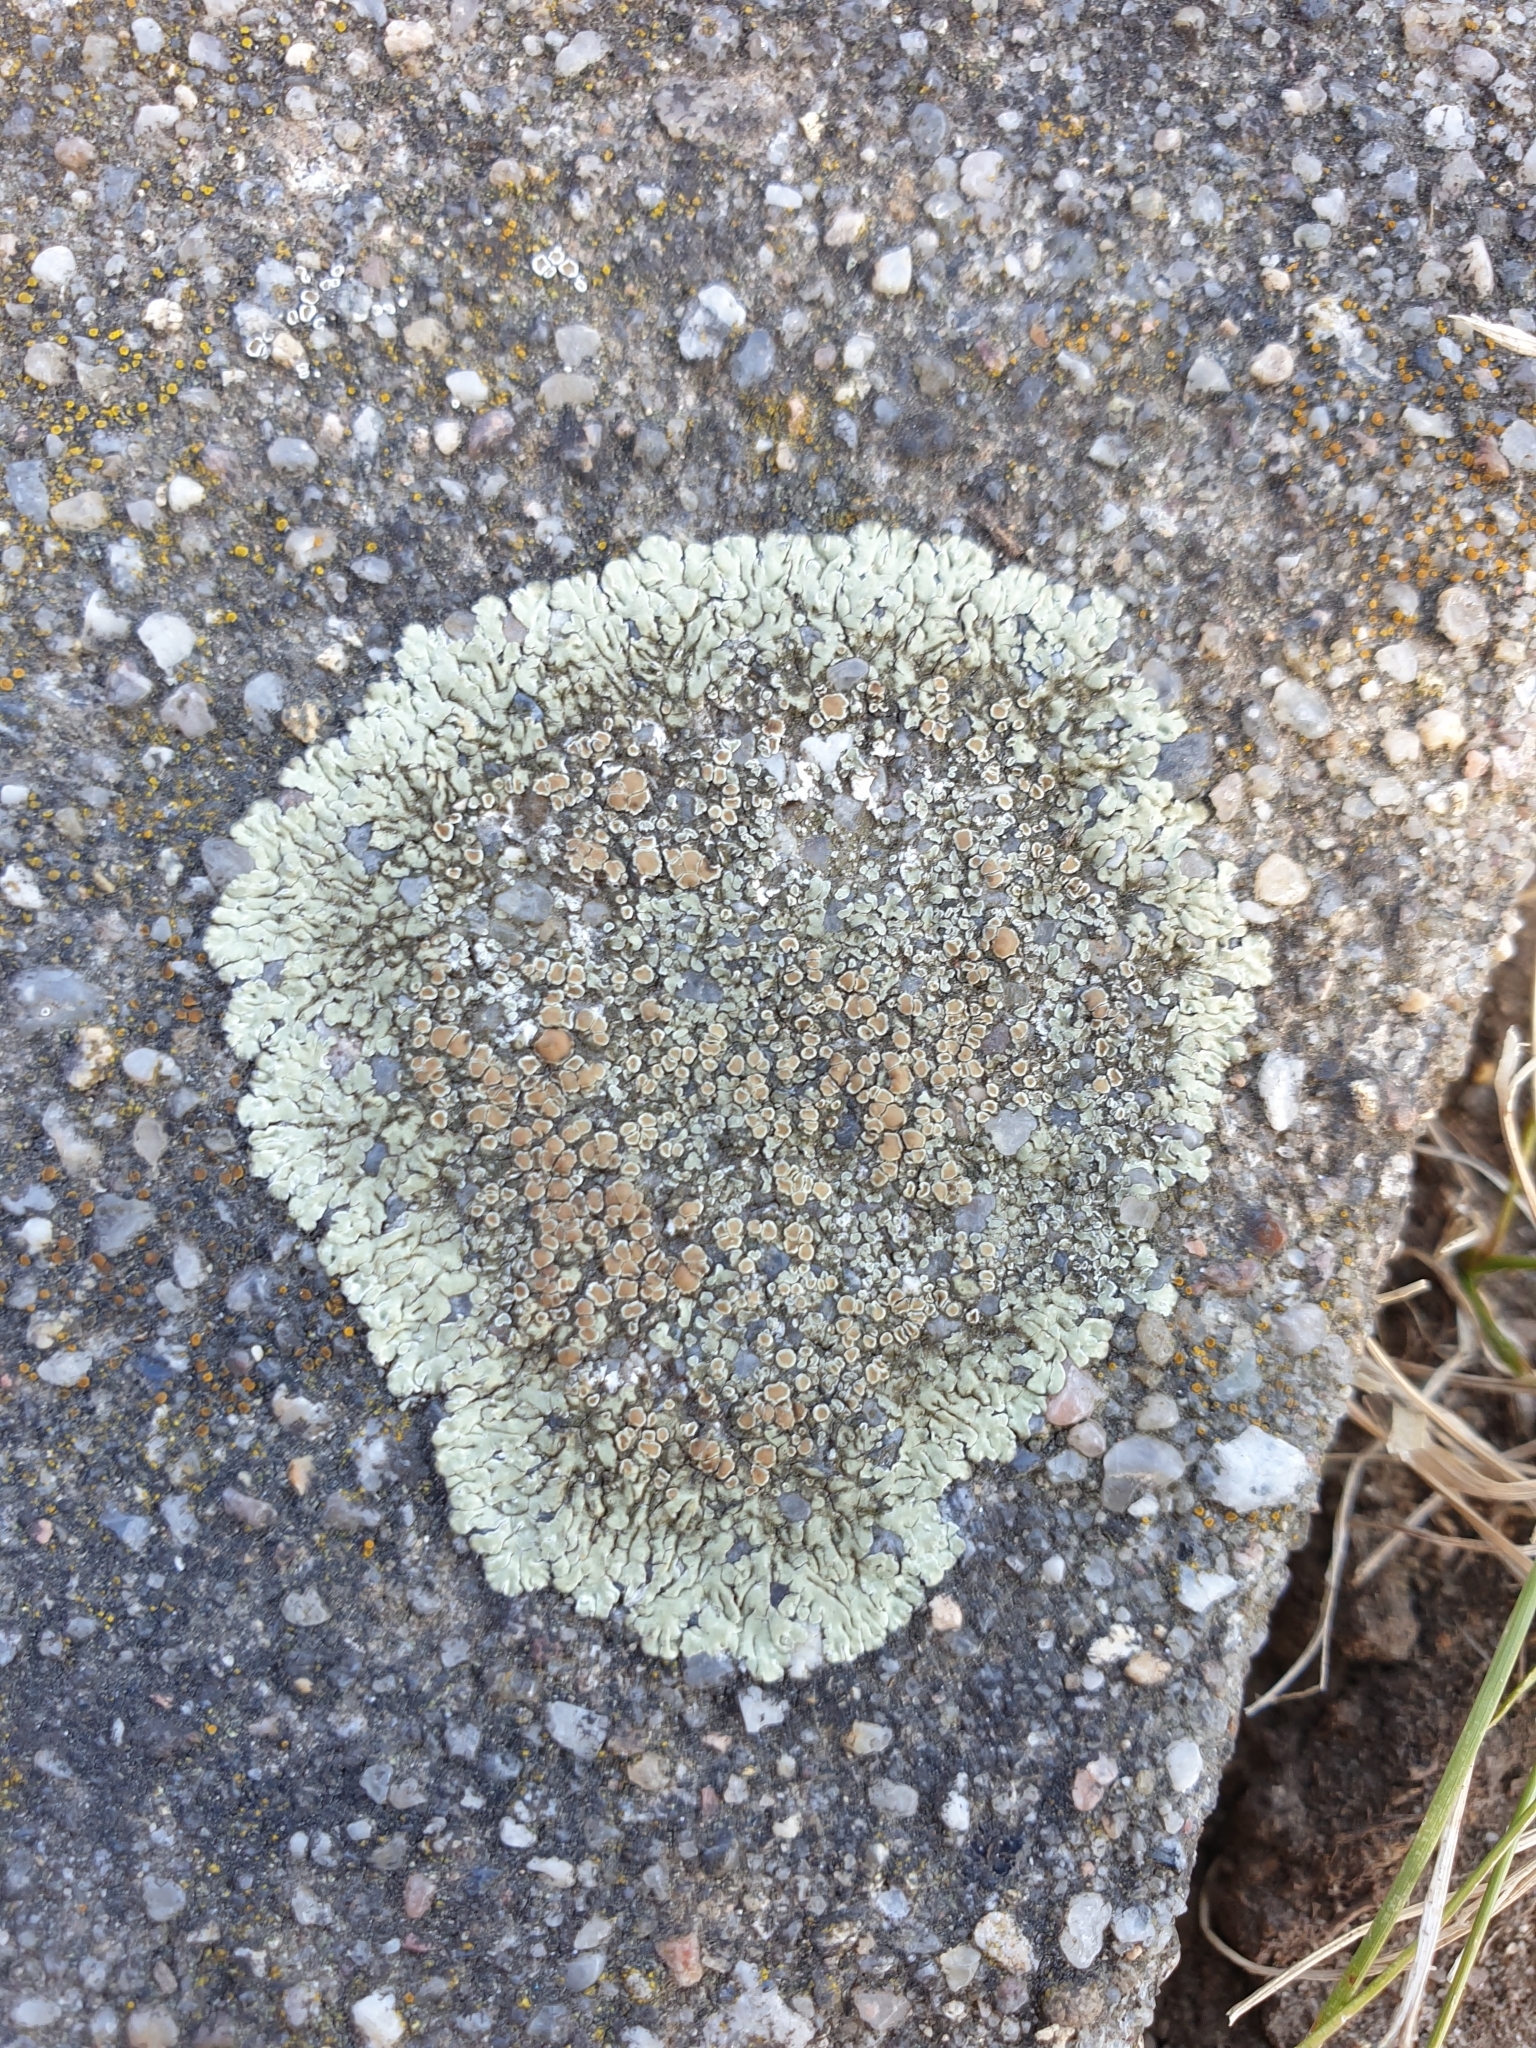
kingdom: Fungi
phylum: Ascomycota
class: Lecanoromycetes
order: Lecanorales
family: Lecanoraceae
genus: Protoparmeliopsis
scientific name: Protoparmeliopsis muralis
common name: Stonewall rim lichen
